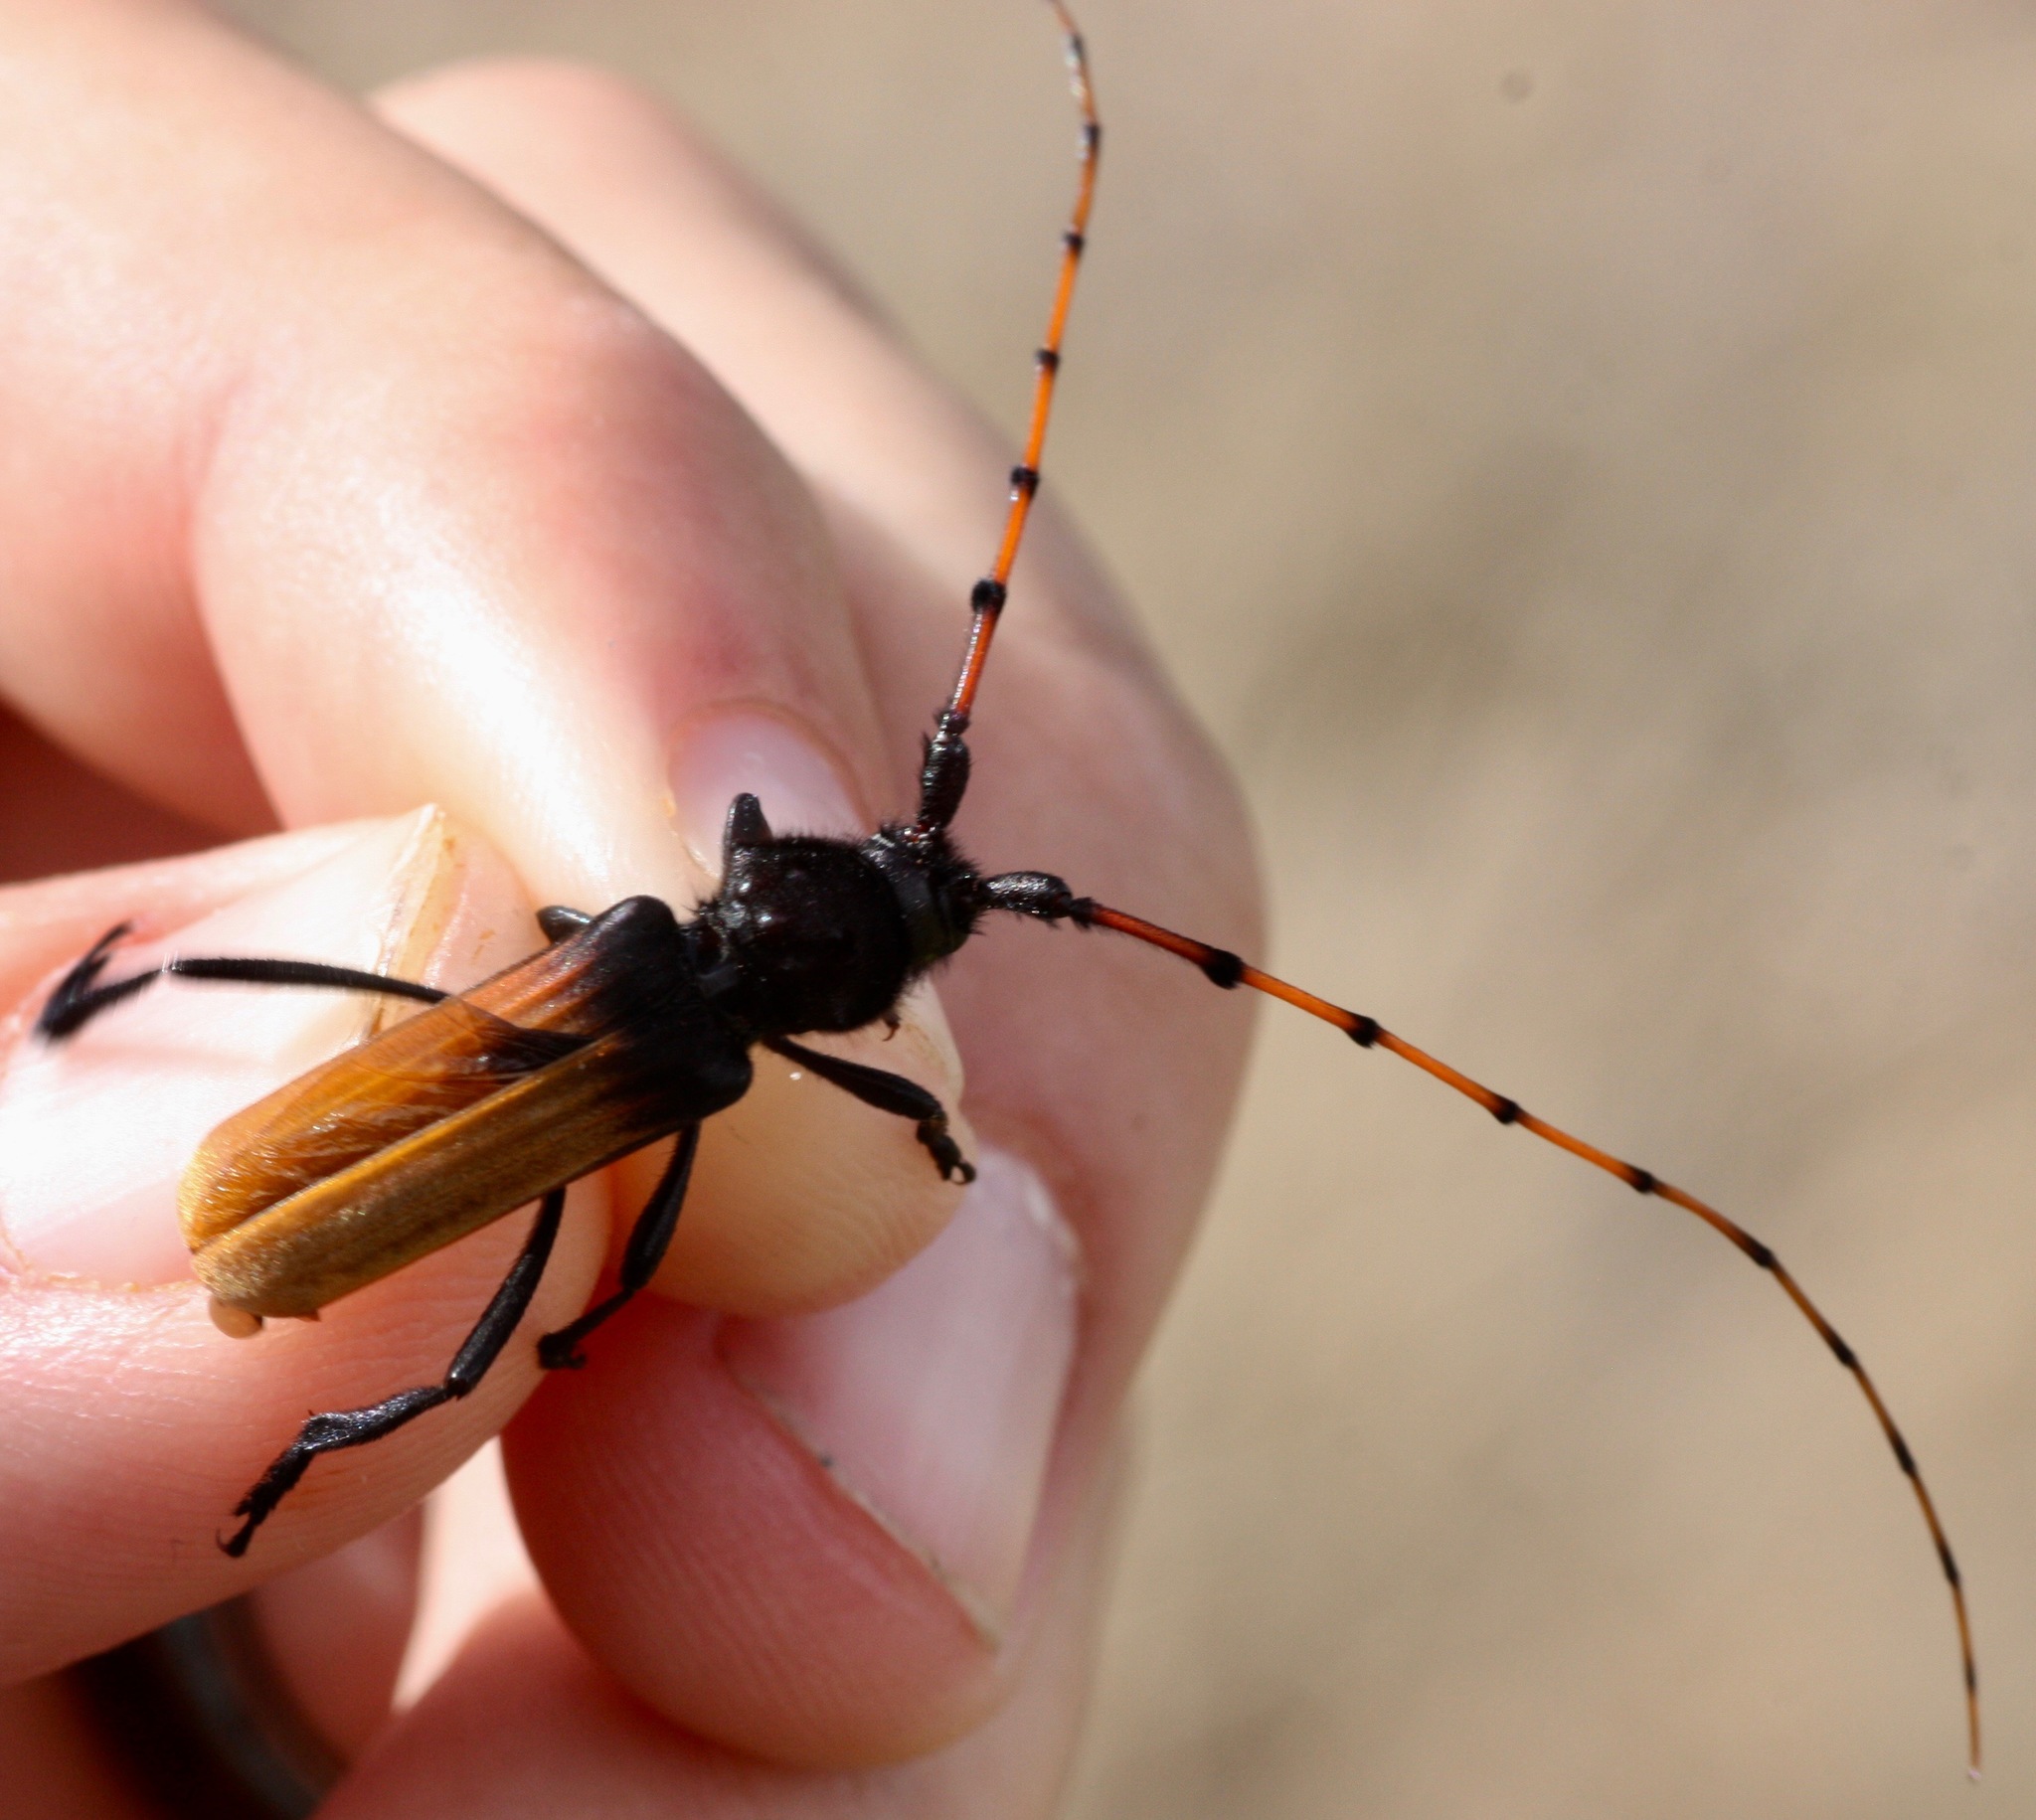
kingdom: Animalia
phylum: Arthropoda
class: Insecta
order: Coleoptera
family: Cerambycidae
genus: Tragidion
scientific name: Tragidion deceptum
